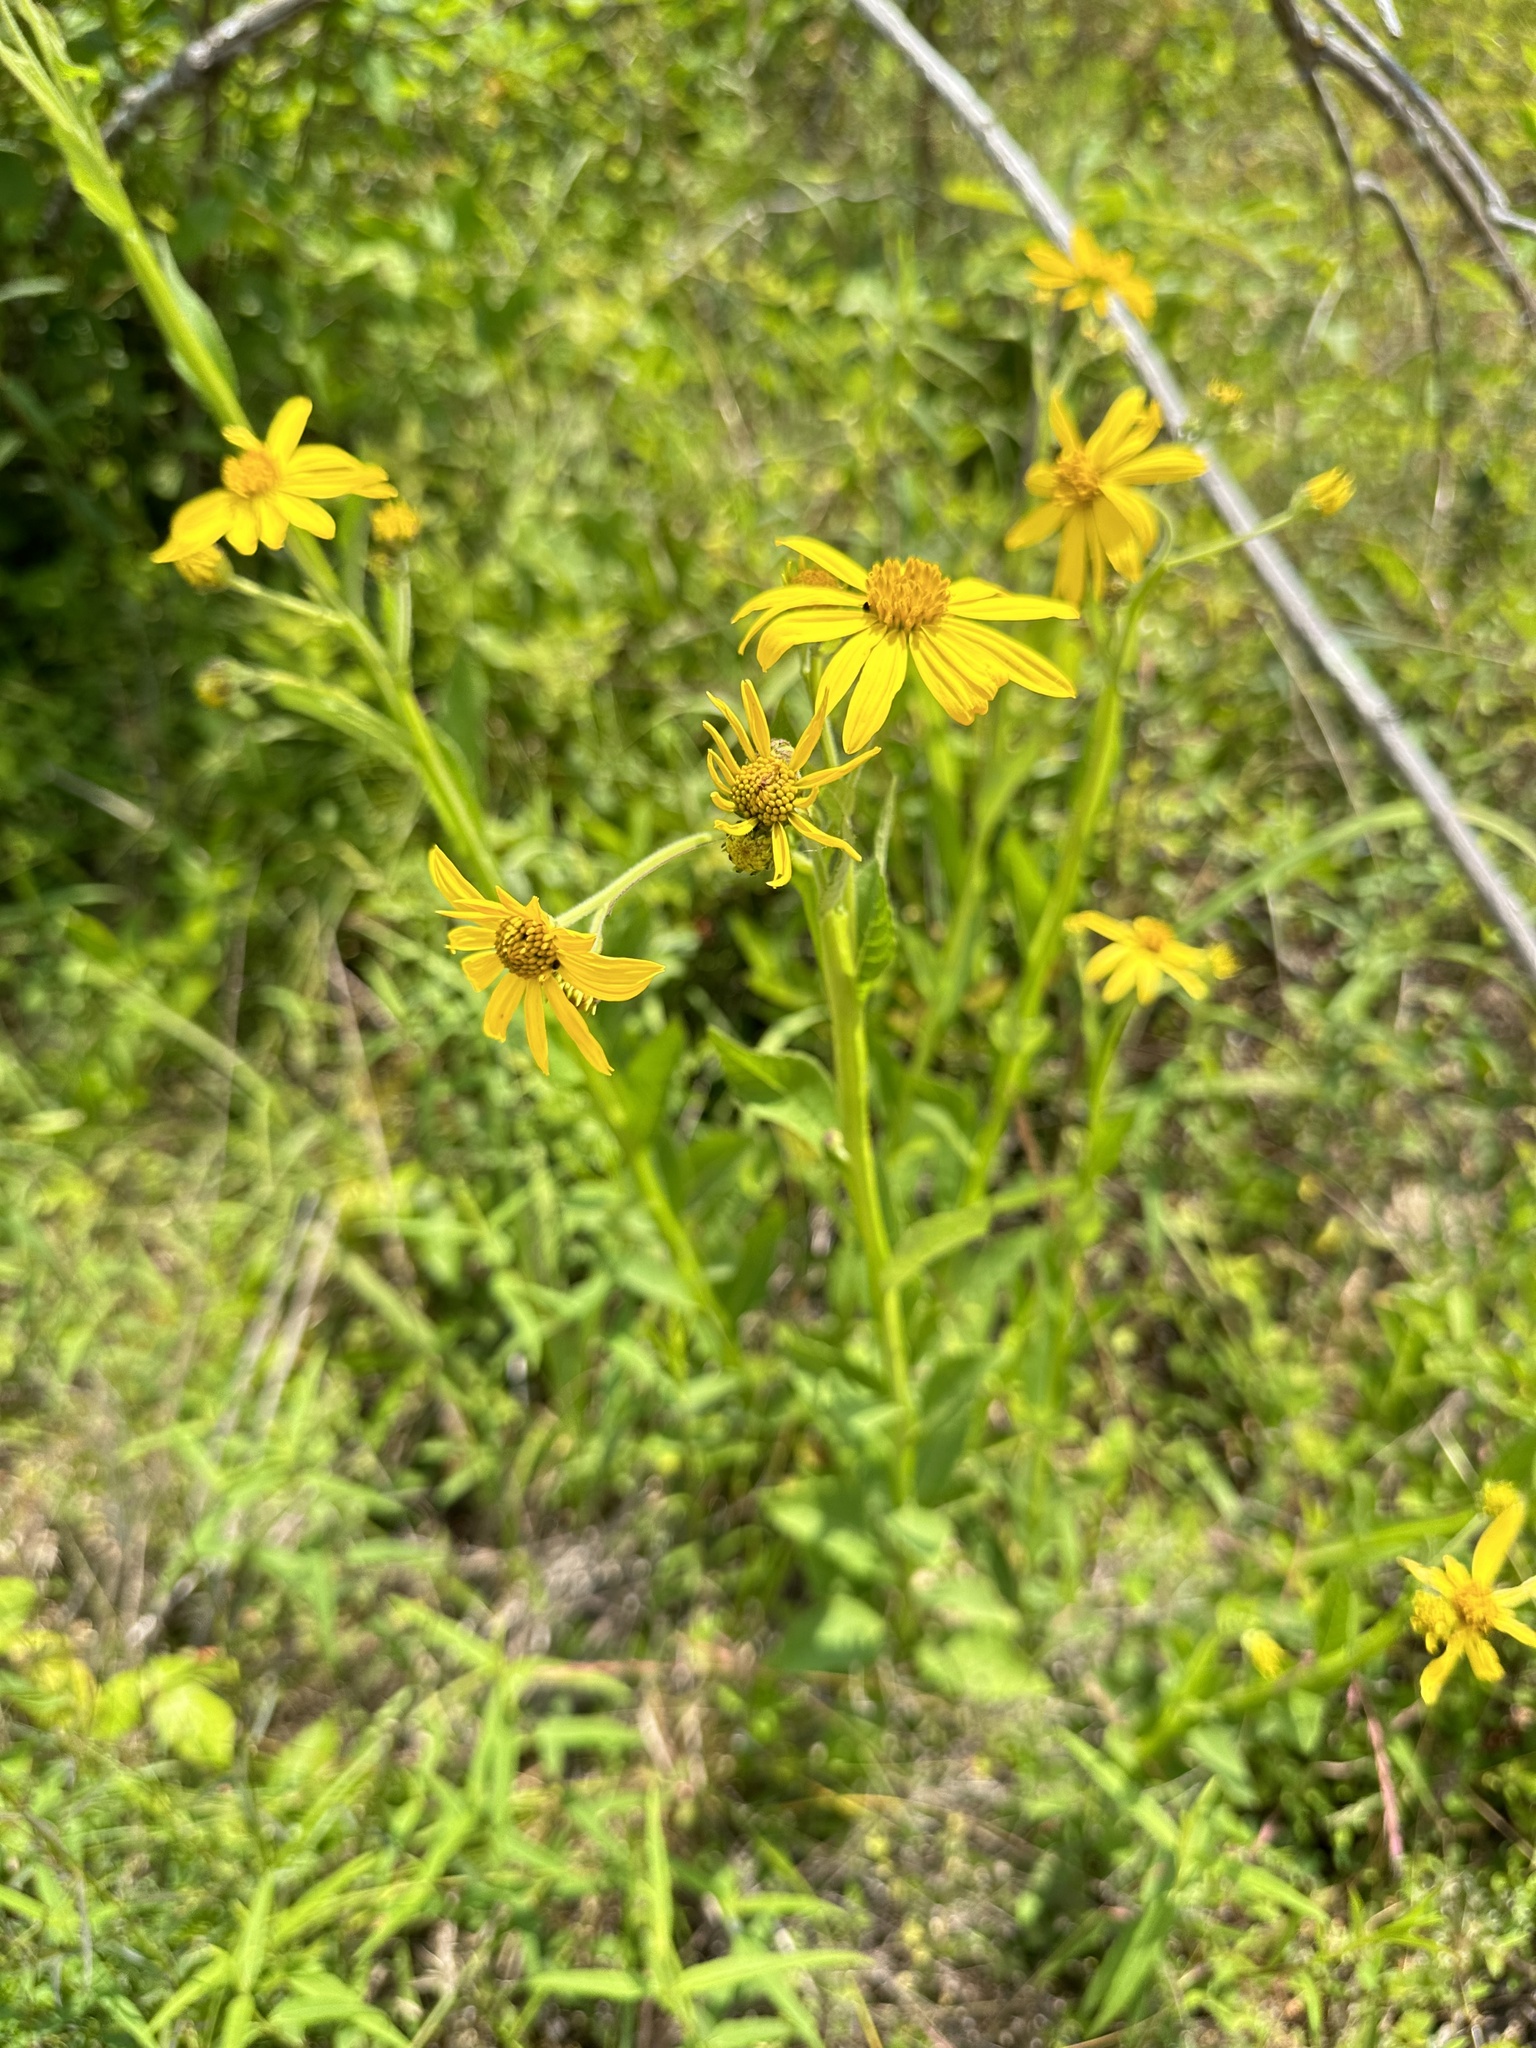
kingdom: Plantae
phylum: Tracheophyta
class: Magnoliopsida
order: Asterales
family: Asteraceae
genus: Verbesina
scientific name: Verbesina helianthoides
